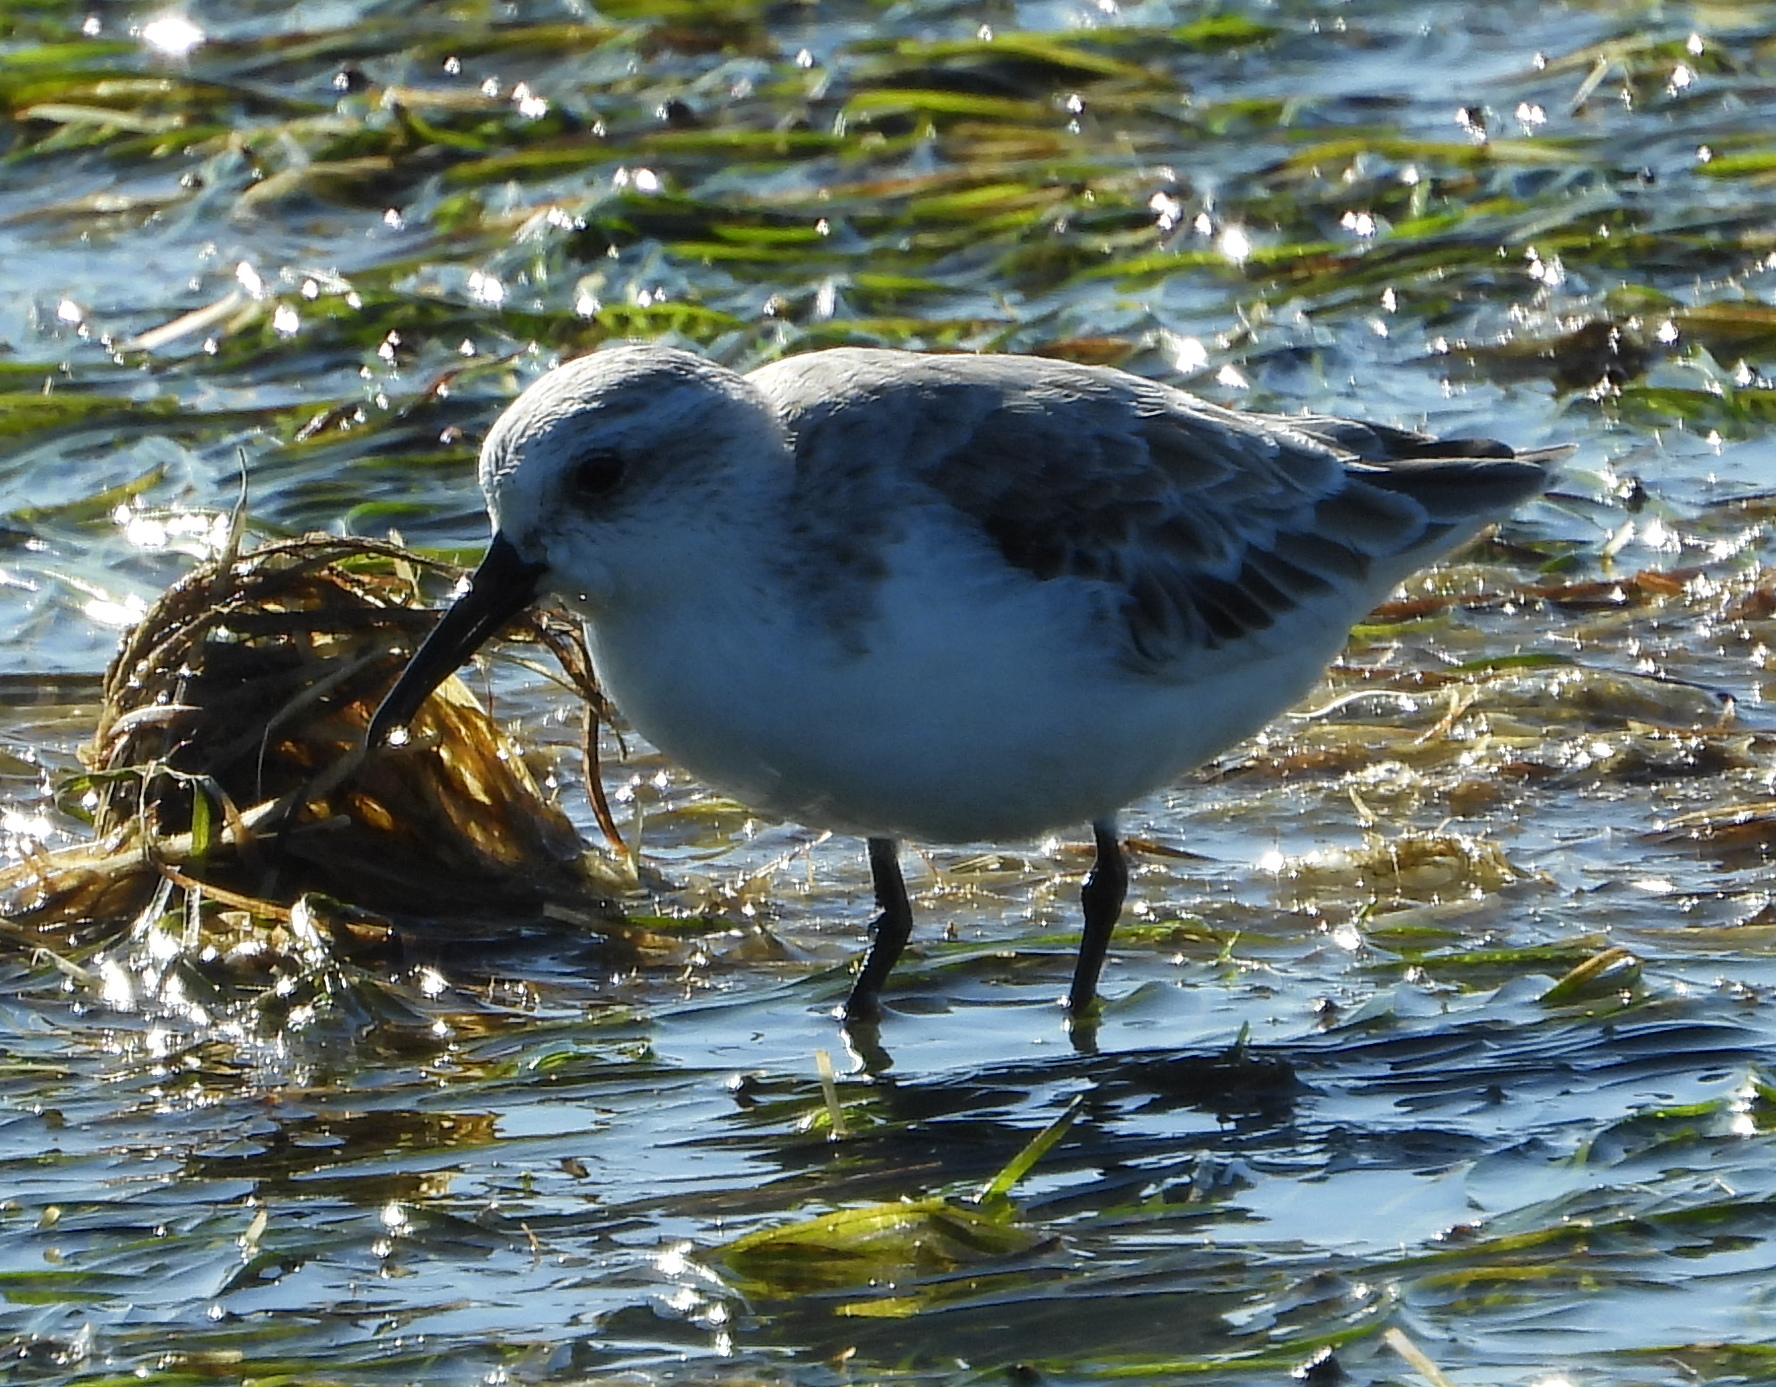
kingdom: Animalia
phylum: Chordata
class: Aves
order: Charadriiformes
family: Scolopacidae
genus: Calidris
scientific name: Calidris alba
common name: Sanderling
